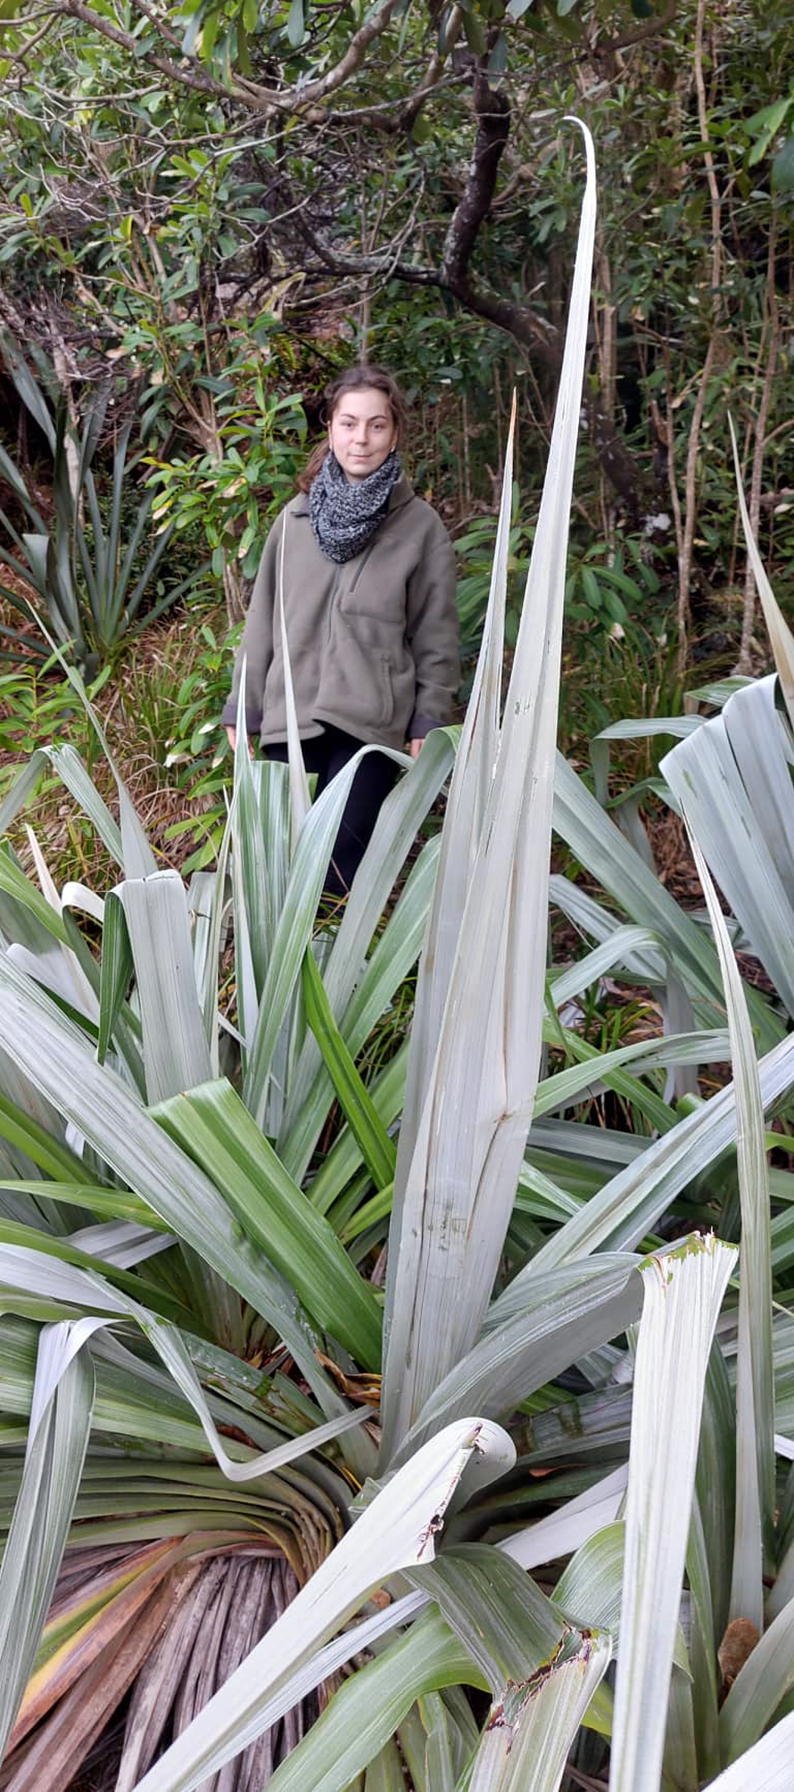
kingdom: Plantae
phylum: Tracheophyta
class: Liliopsida
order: Asparagales
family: Asteliaceae
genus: Astelia
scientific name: Astelia chathamica
